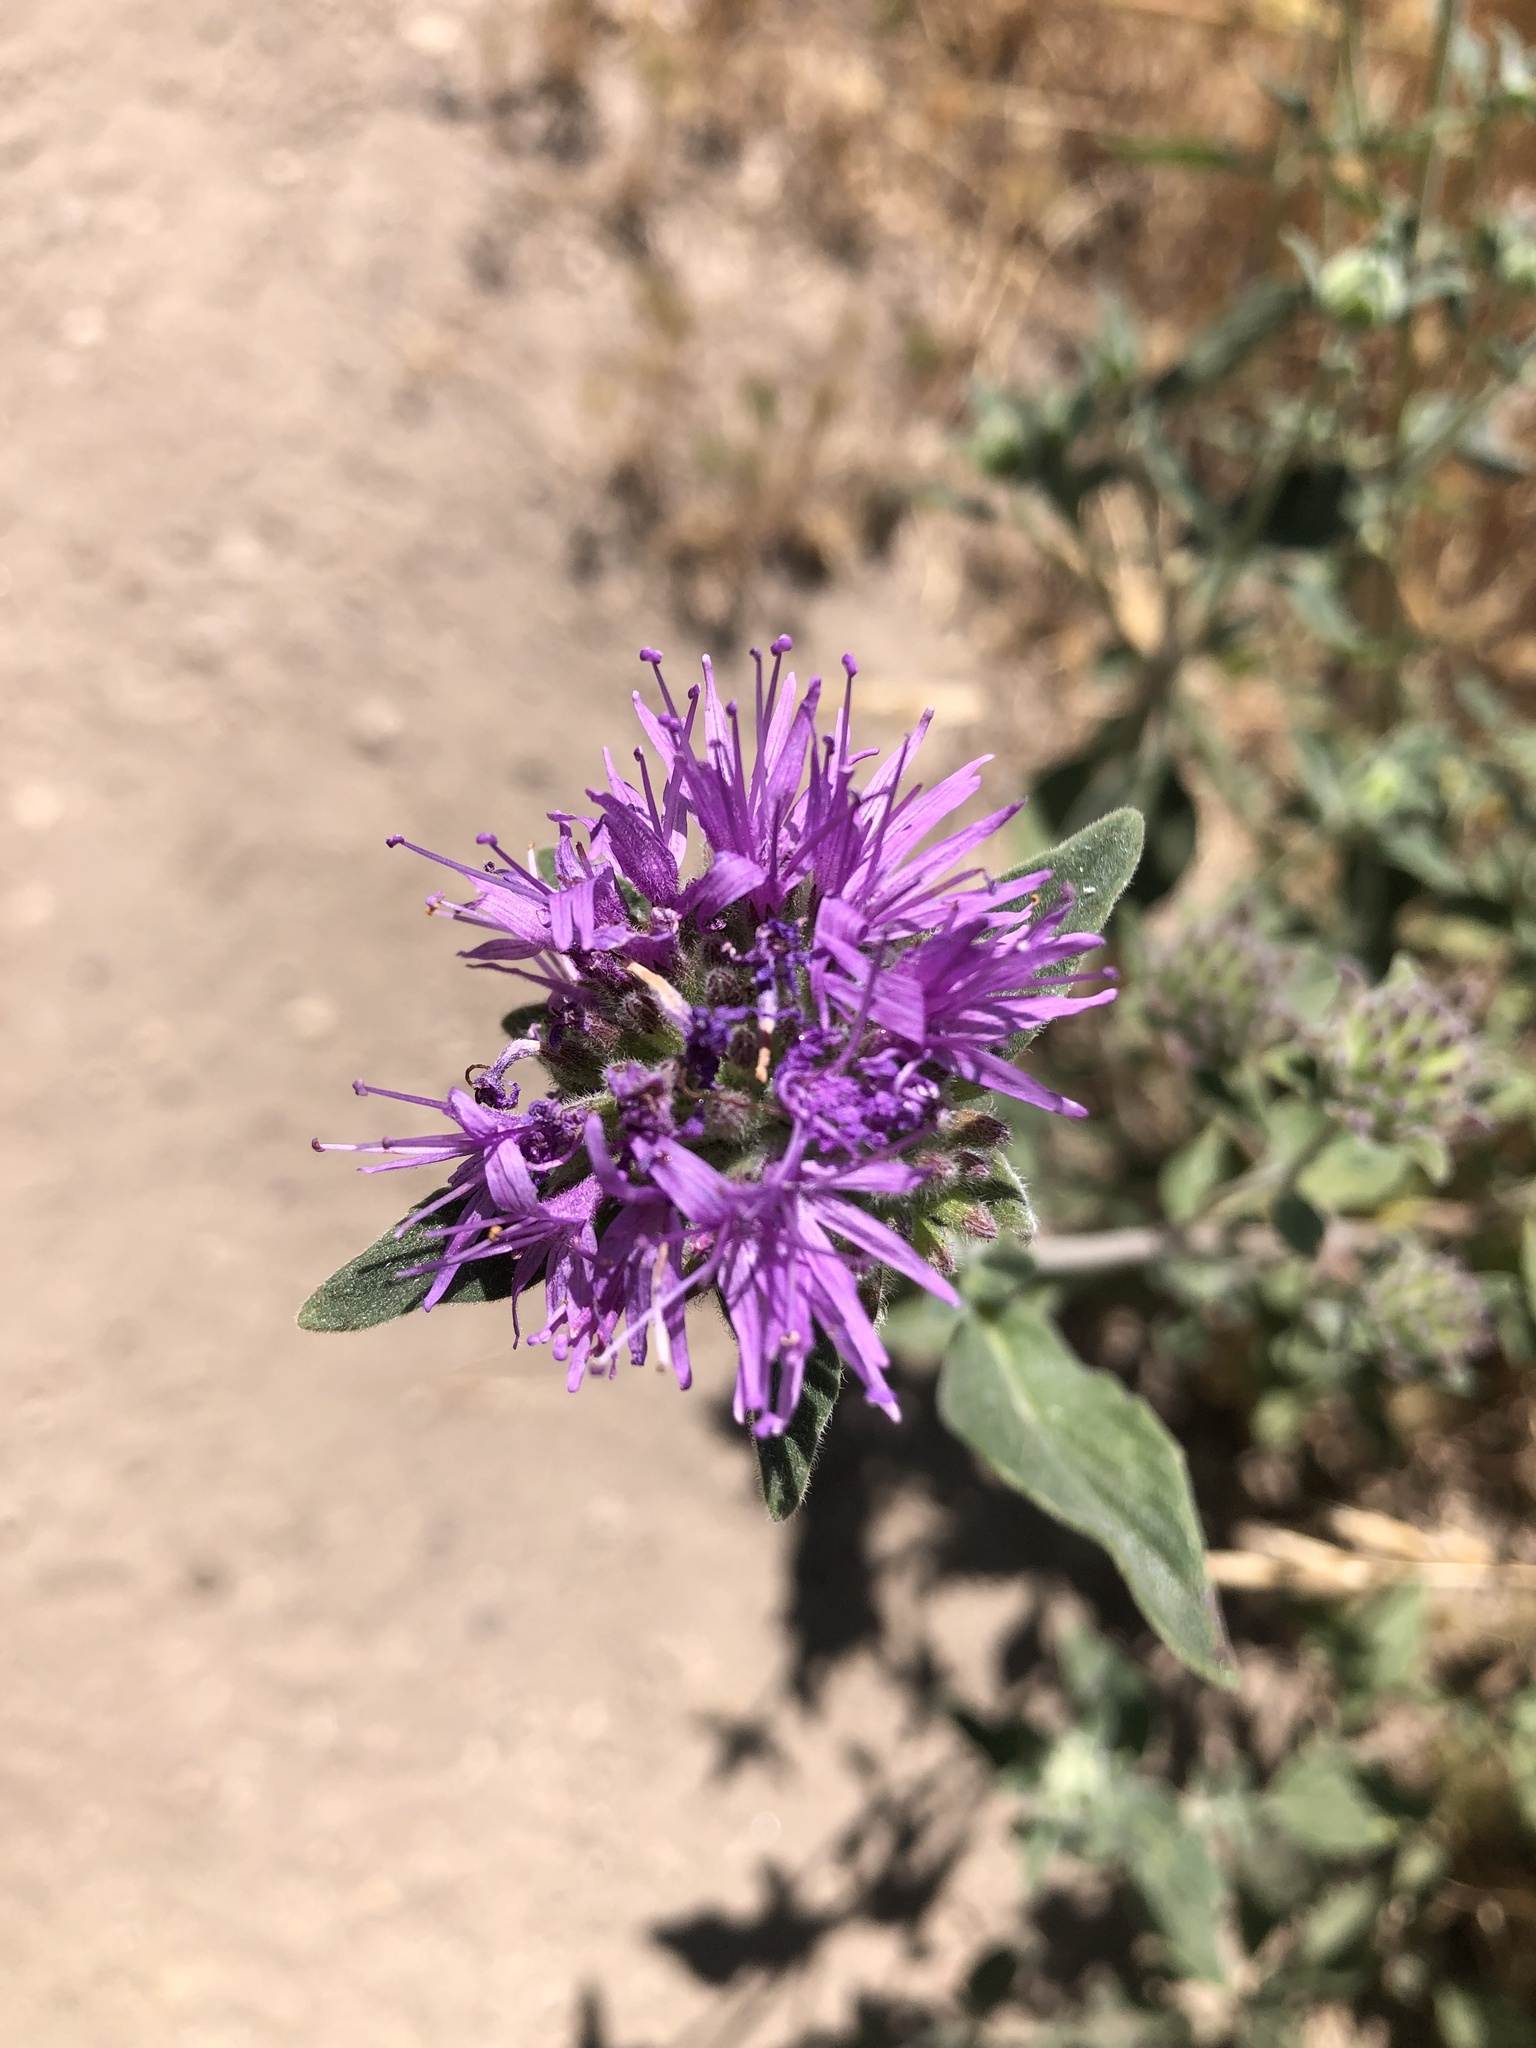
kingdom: Plantae
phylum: Tracheophyta
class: Magnoliopsida
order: Lamiales
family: Lamiaceae
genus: Monardella
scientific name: Monardella odoratissima
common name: Pacific monardella
